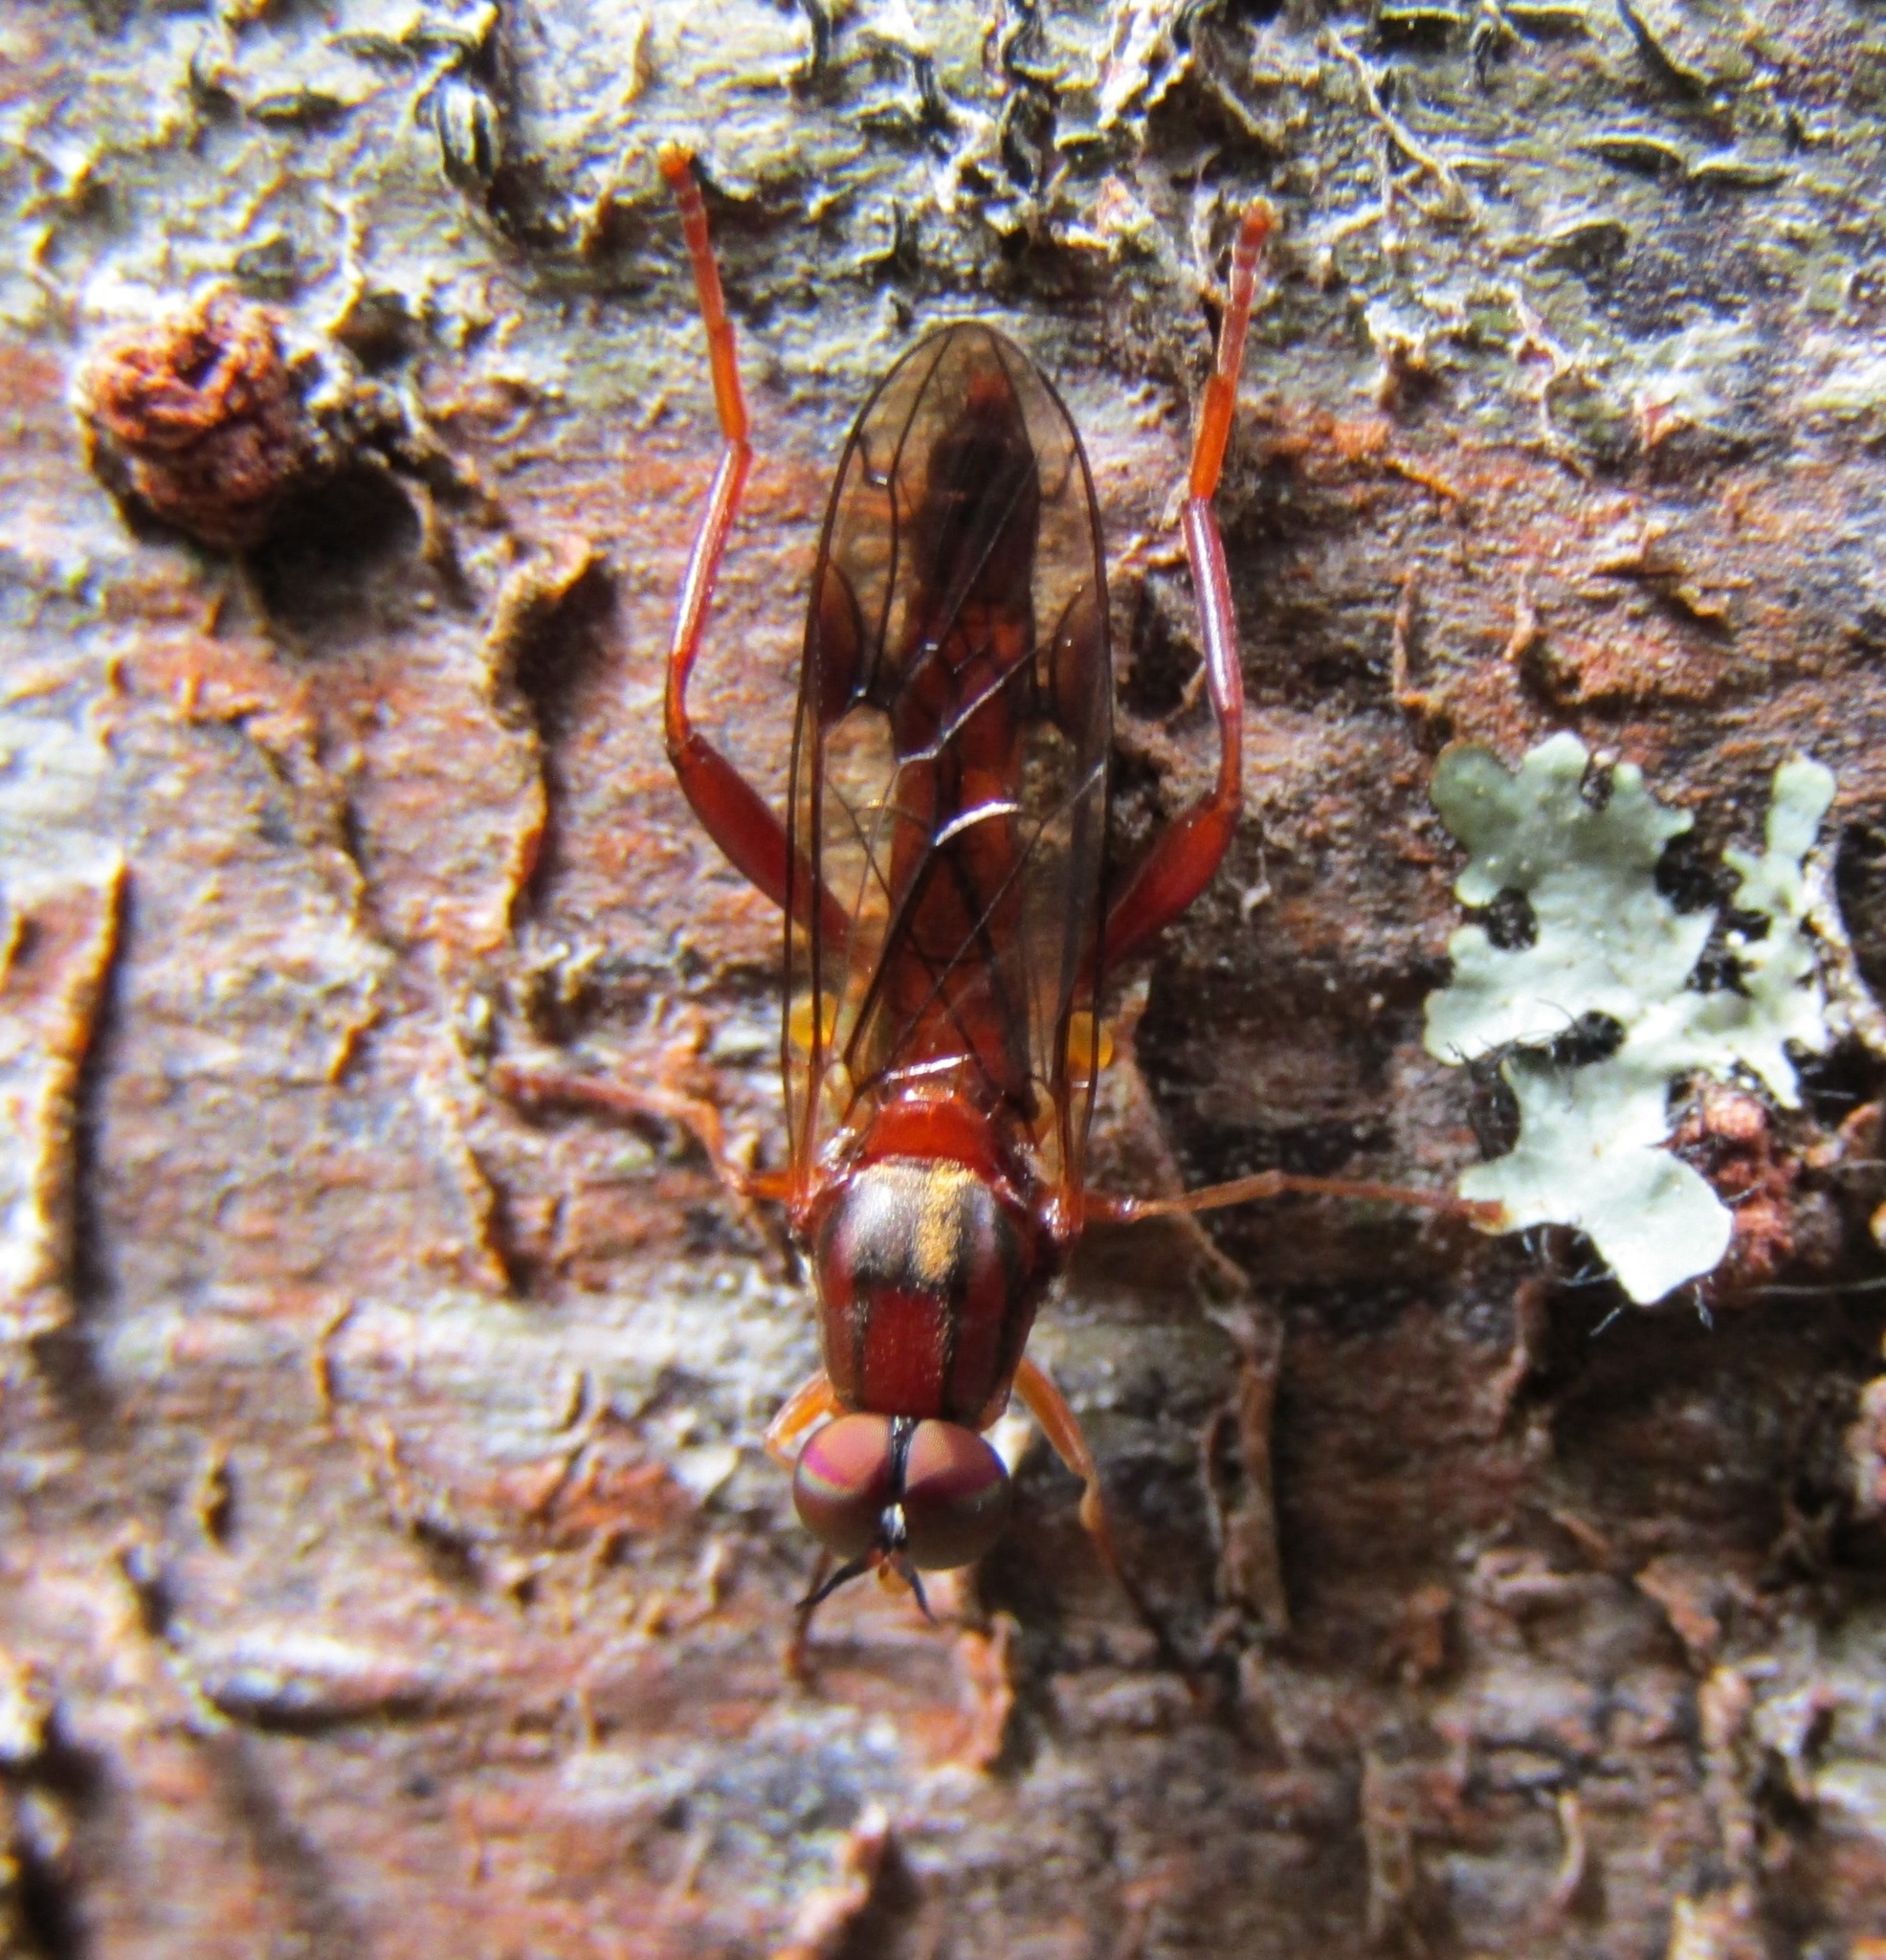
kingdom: Animalia
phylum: Arthropoda
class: Insecta
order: Diptera
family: Stratiomyidae
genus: Benhamyia
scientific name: Benhamyia straznitzkii
